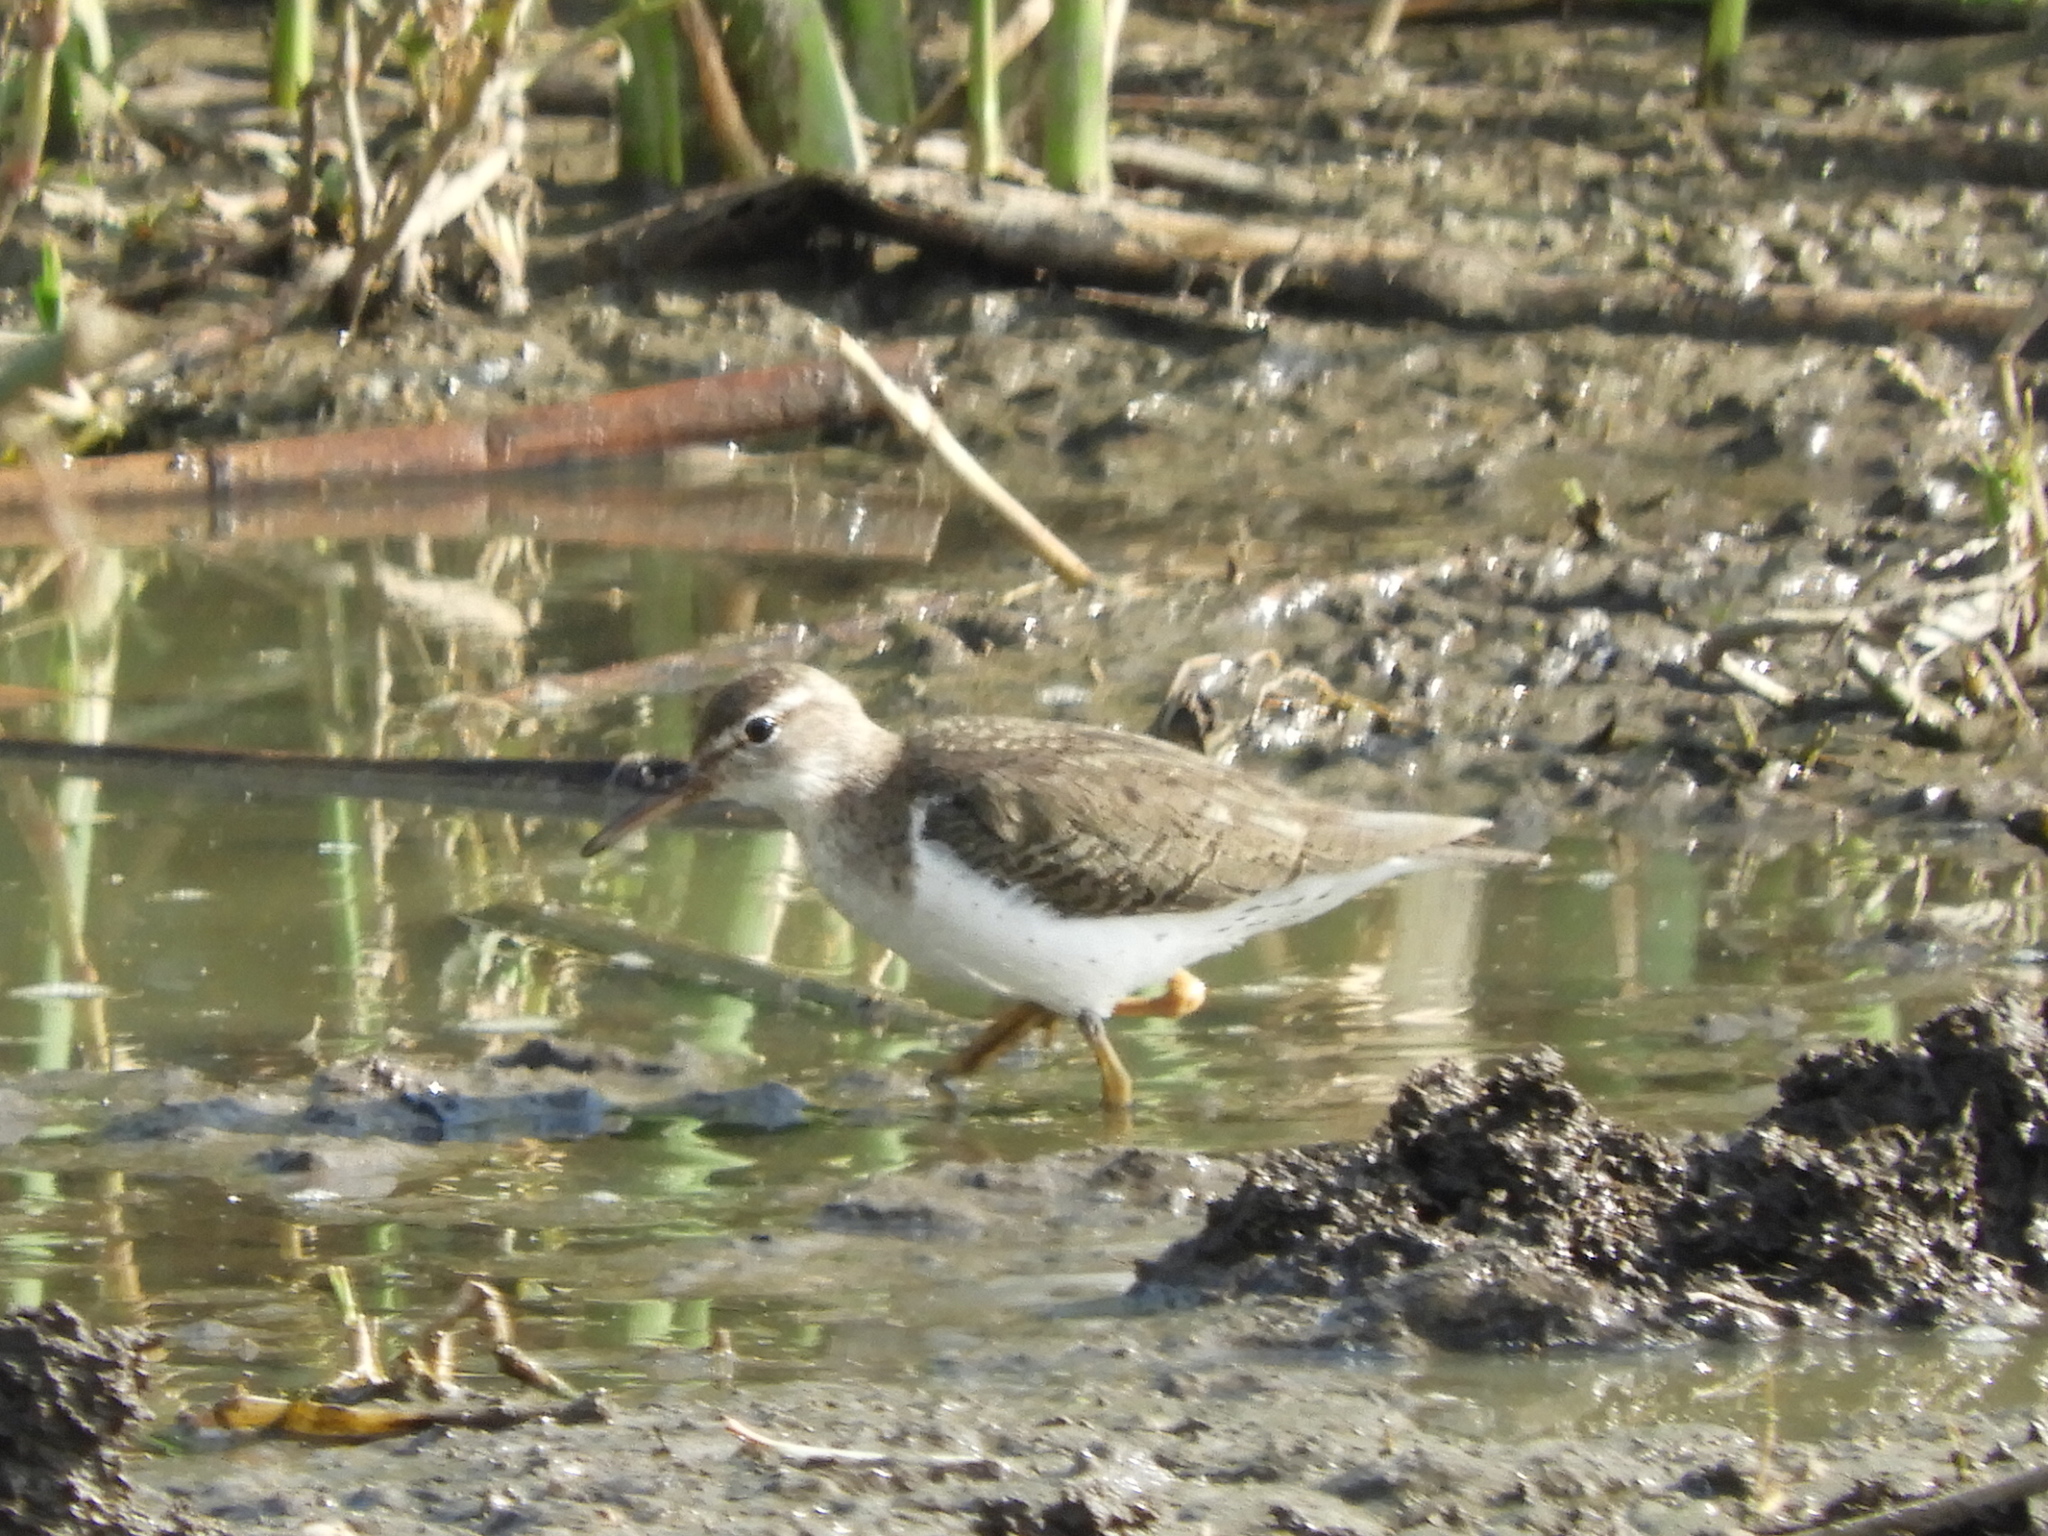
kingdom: Animalia
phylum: Chordata
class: Aves
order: Charadriiformes
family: Scolopacidae
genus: Actitis
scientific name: Actitis macularius
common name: Spotted sandpiper
